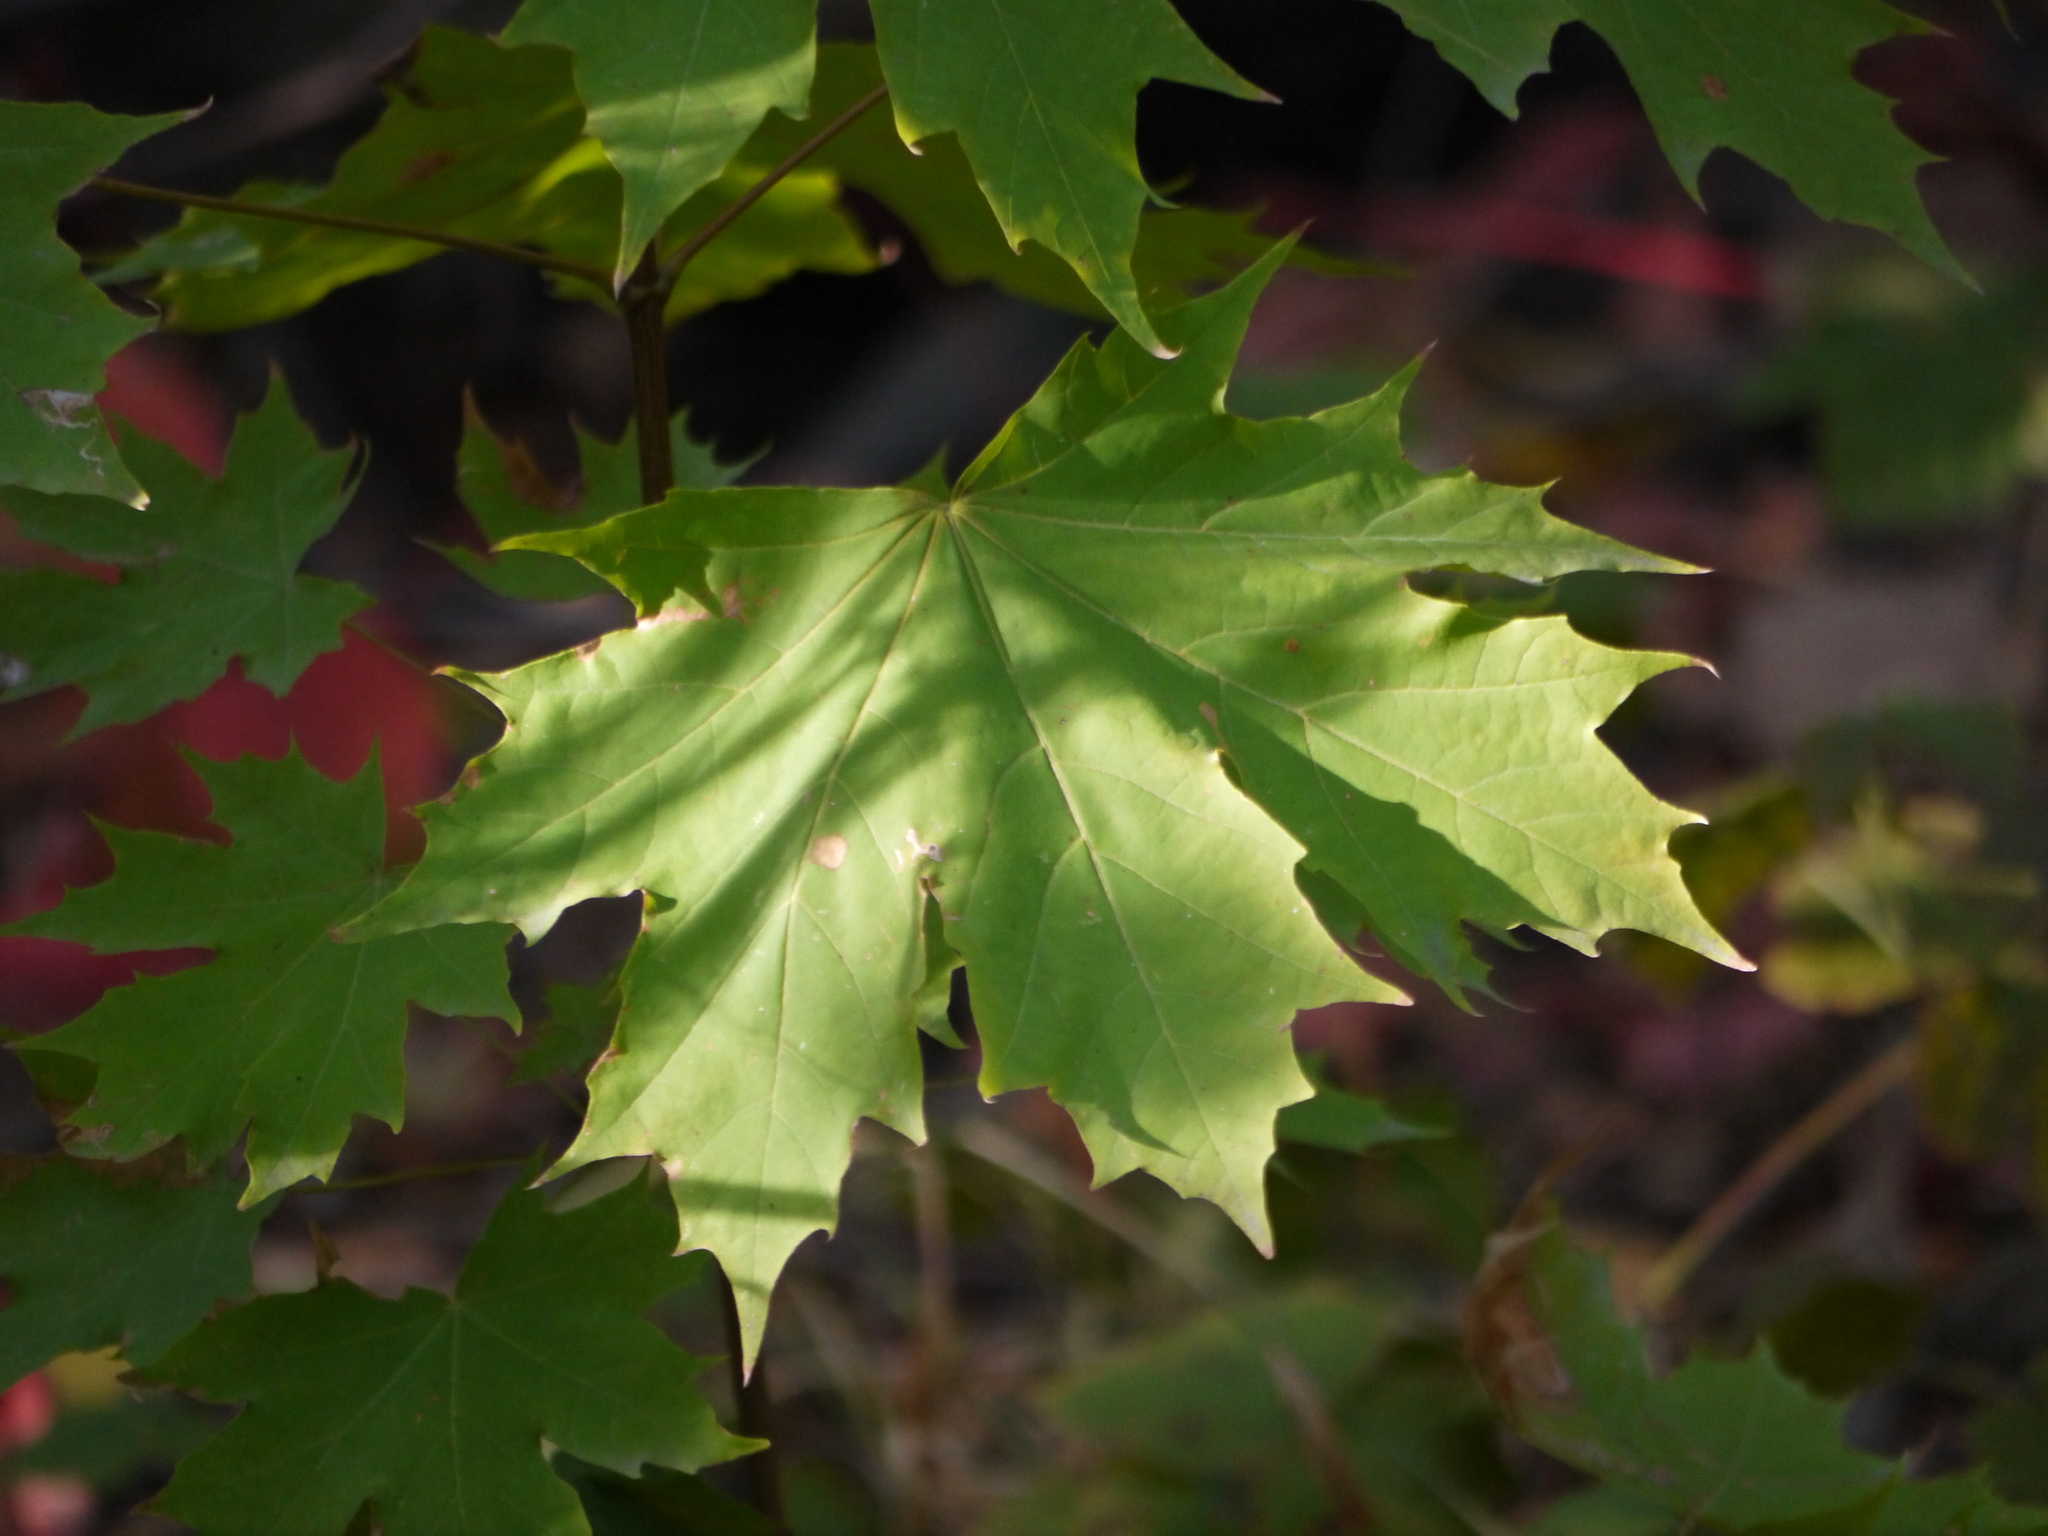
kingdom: Plantae
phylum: Tracheophyta
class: Magnoliopsida
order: Sapindales
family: Sapindaceae
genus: Acer
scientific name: Acer platanoides
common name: Norway maple
